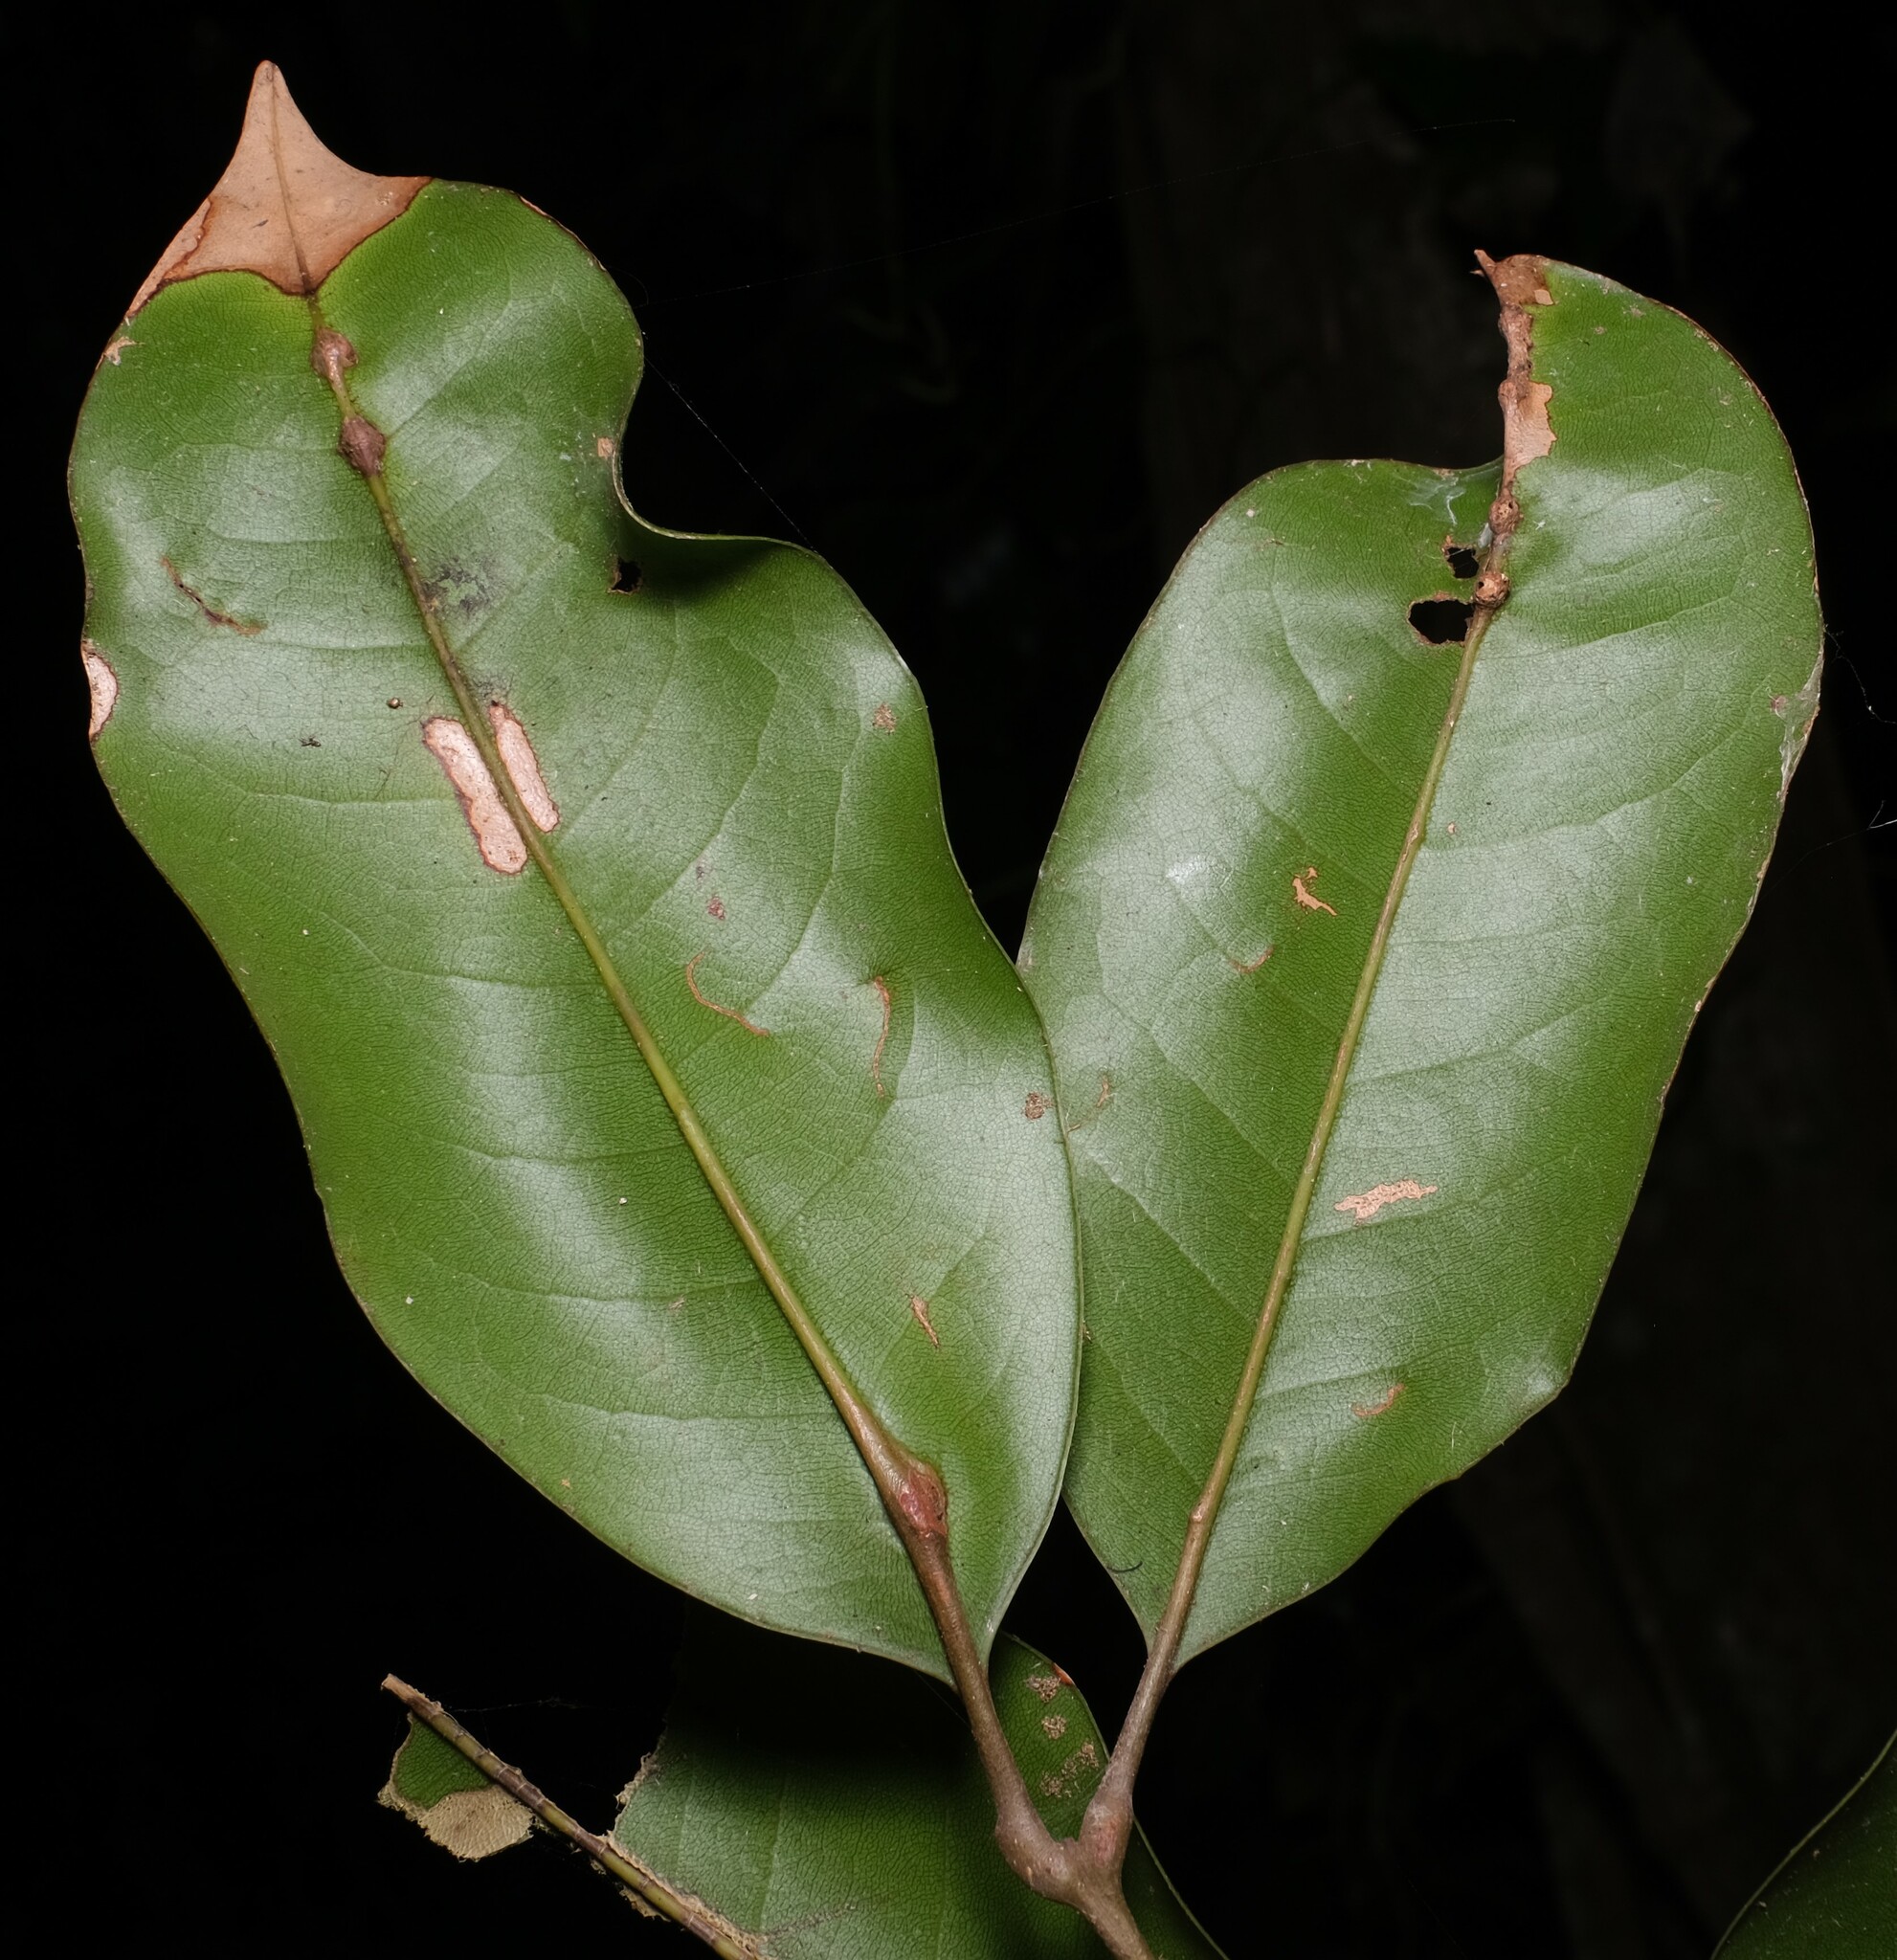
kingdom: Plantae
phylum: Tracheophyta
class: Magnoliopsida
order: Sapindales
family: Sapindaceae
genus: Mischocarpus
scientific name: Mischocarpus pyriformis
